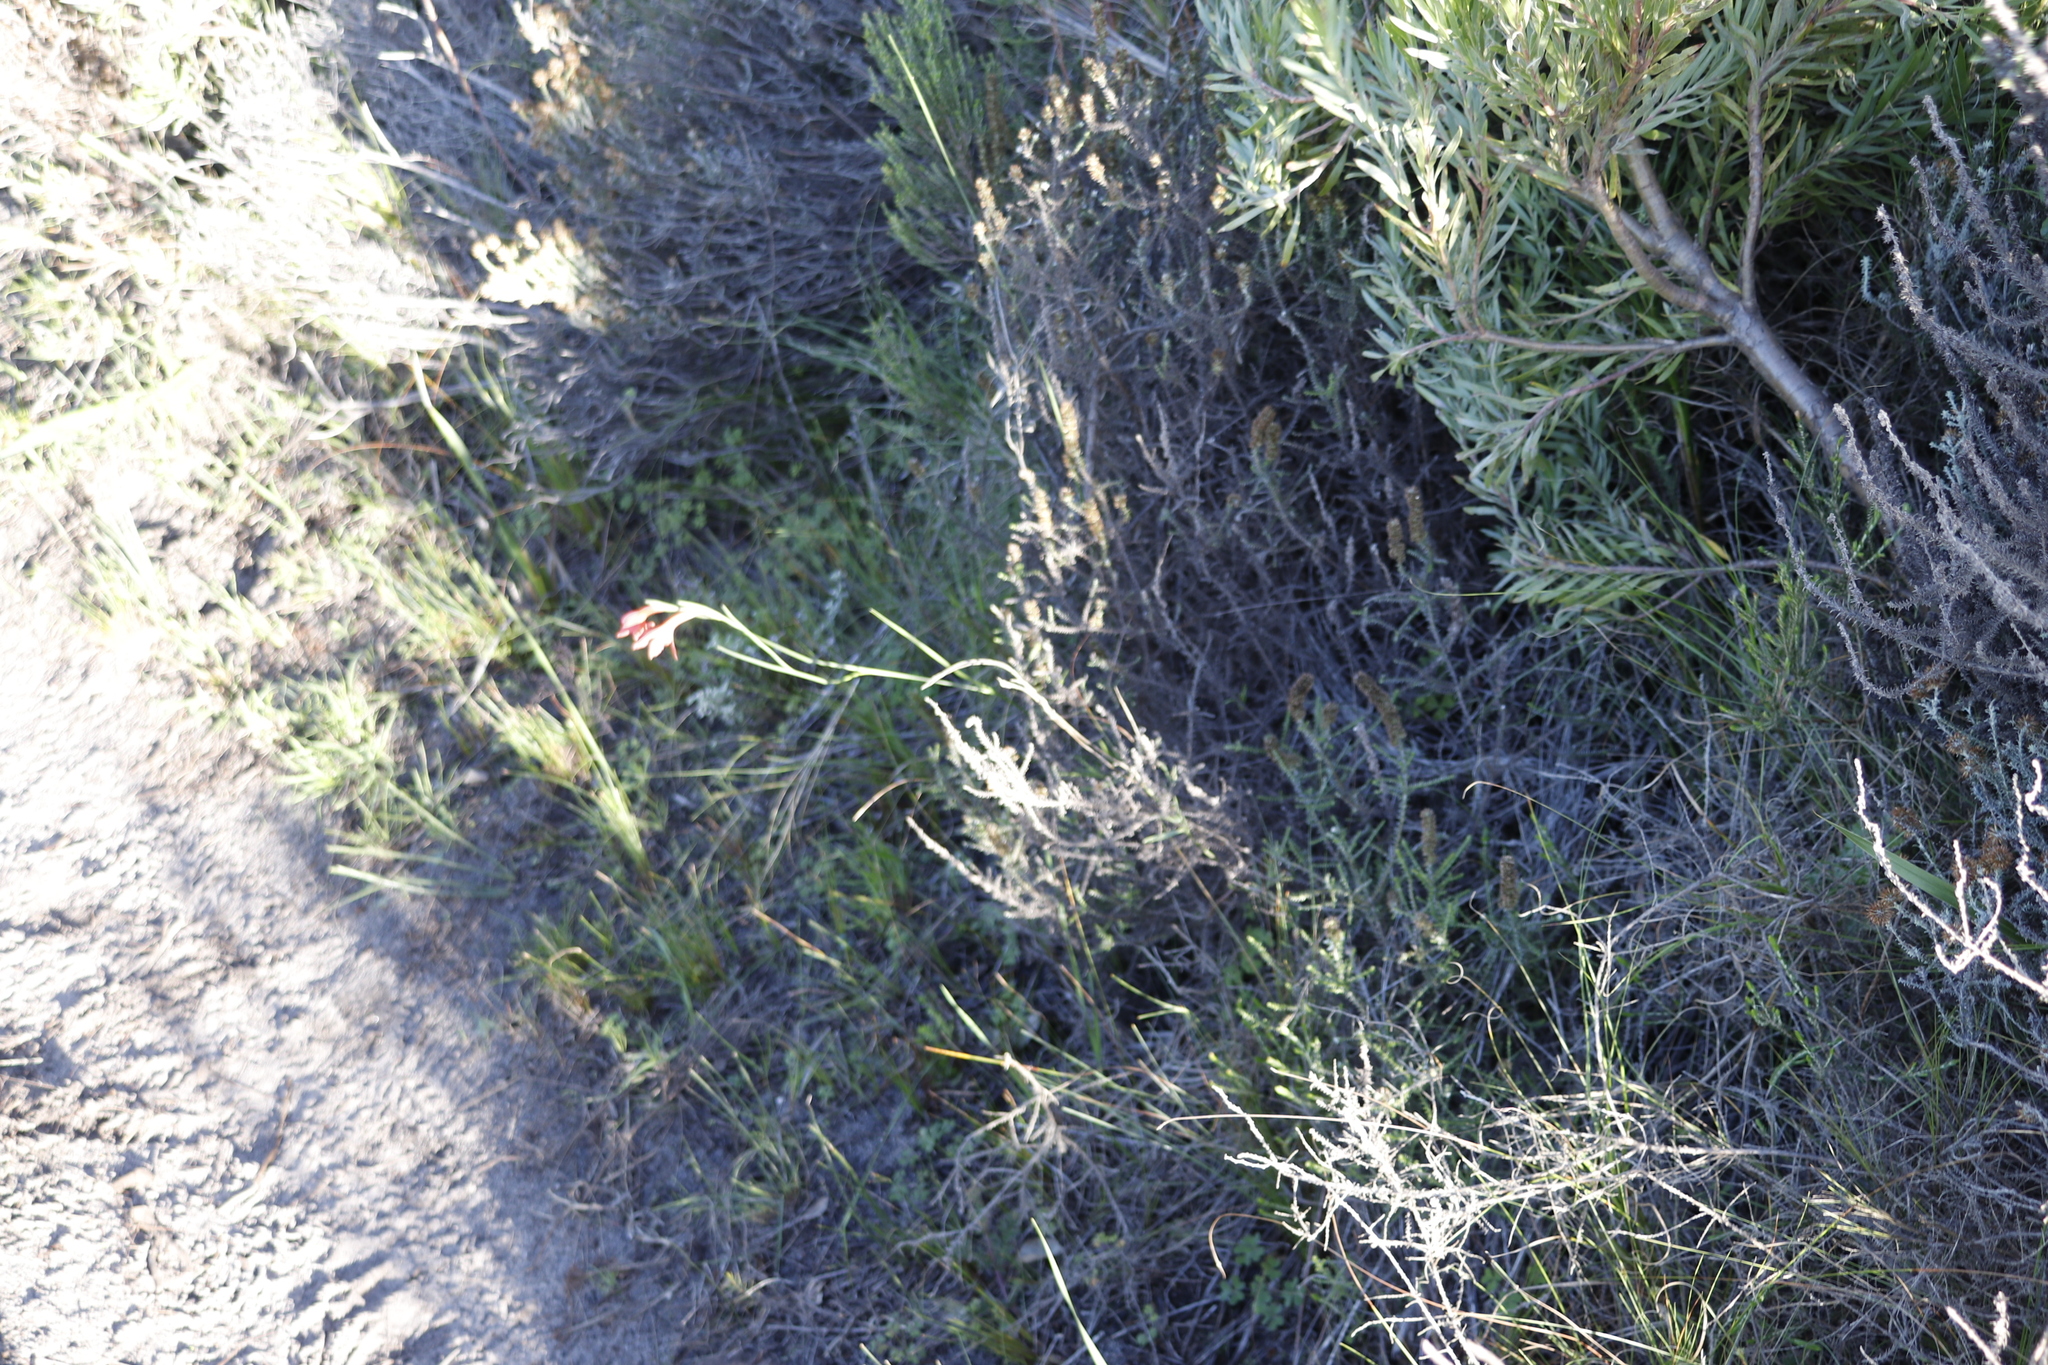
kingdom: Plantae
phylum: Tracheophyta
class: Liliopsida
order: Asparagales
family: Iridaceae
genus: Gladiolus
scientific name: Gladiolus priorii
